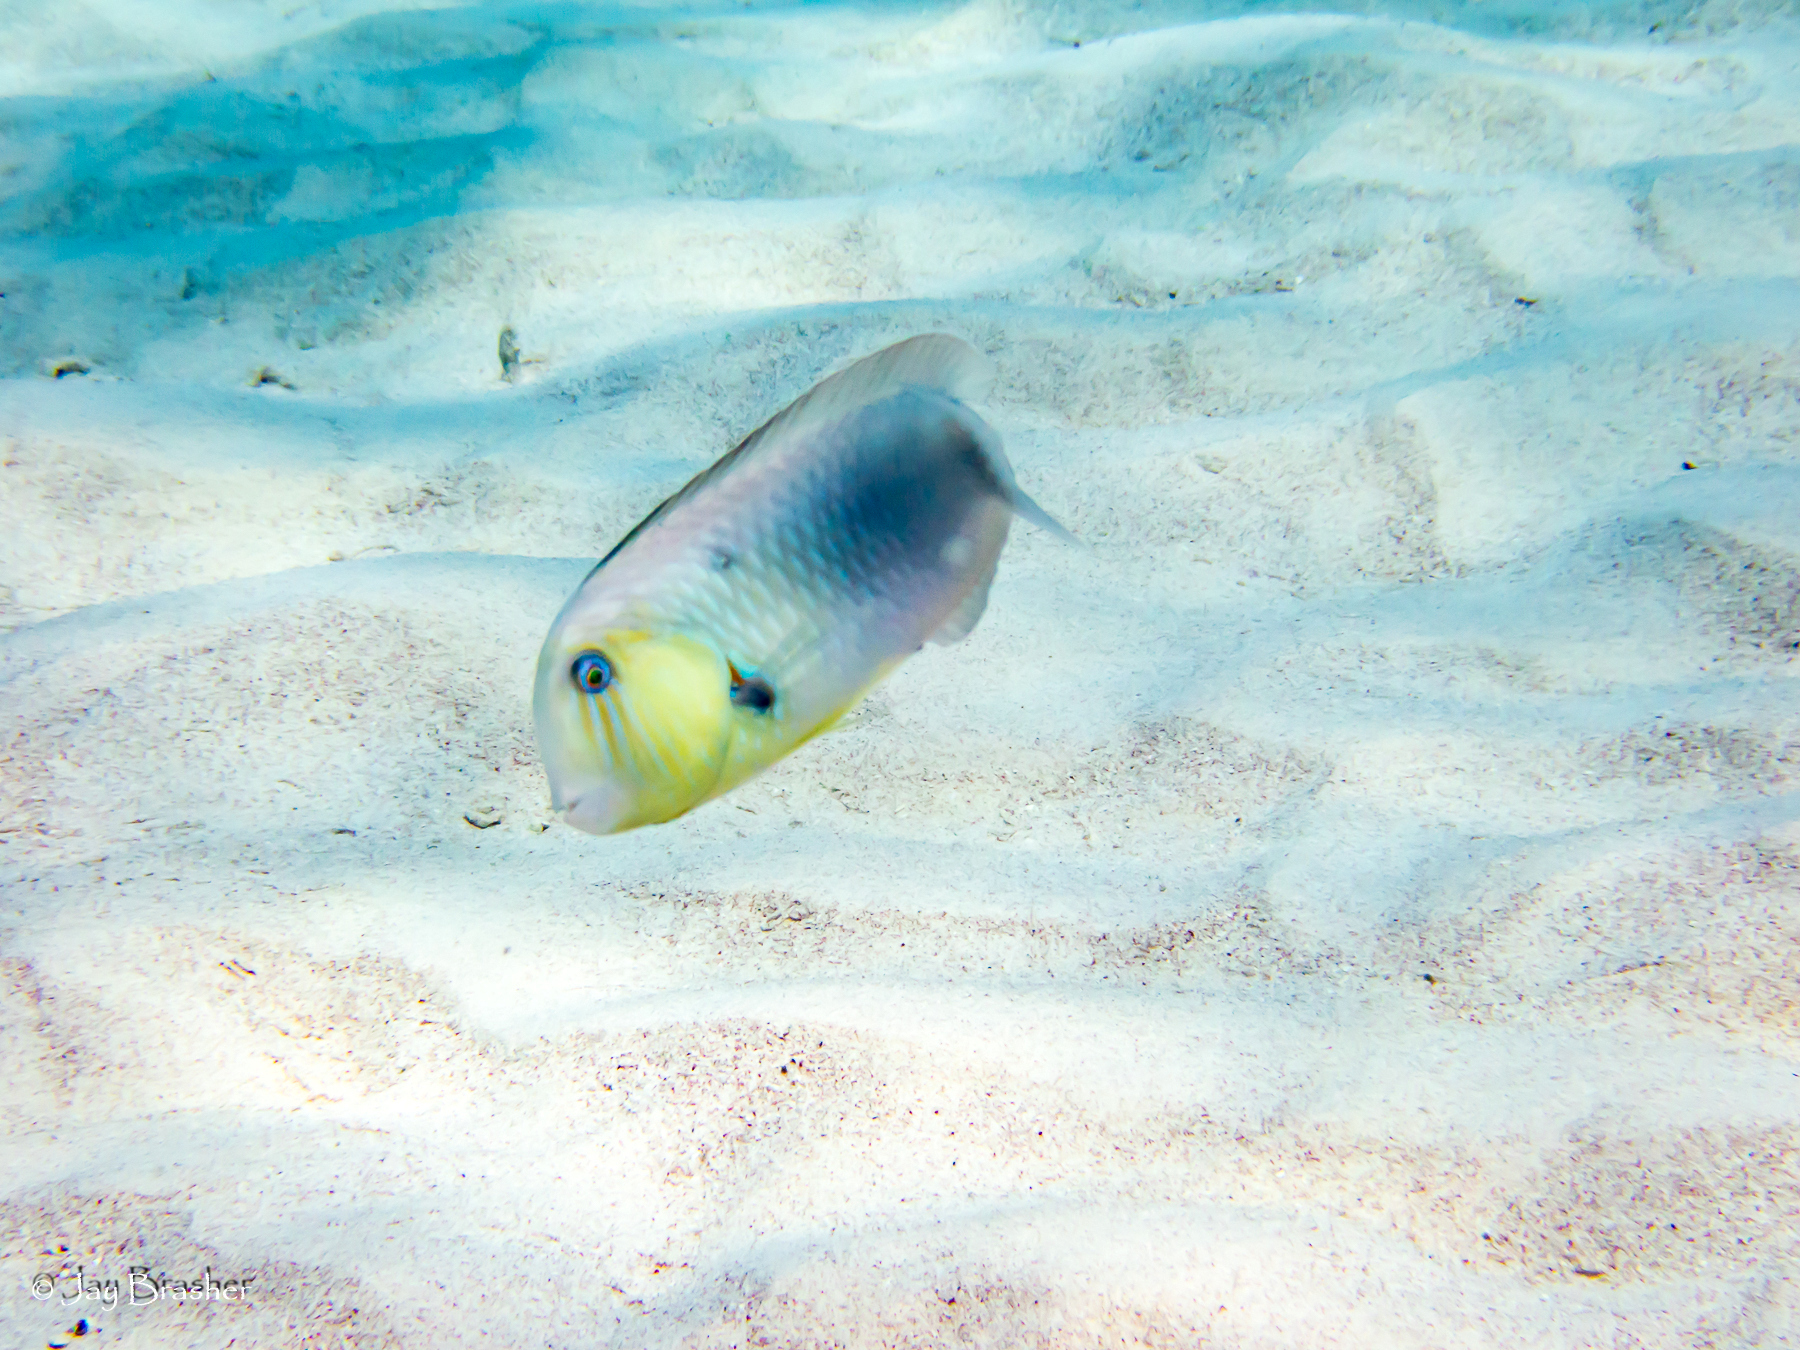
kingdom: Animalia
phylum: Chordata
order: Perciformes
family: Labridae
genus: Xyrichtys
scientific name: Xyrichtys martinicensis
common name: Rosy razorfish
